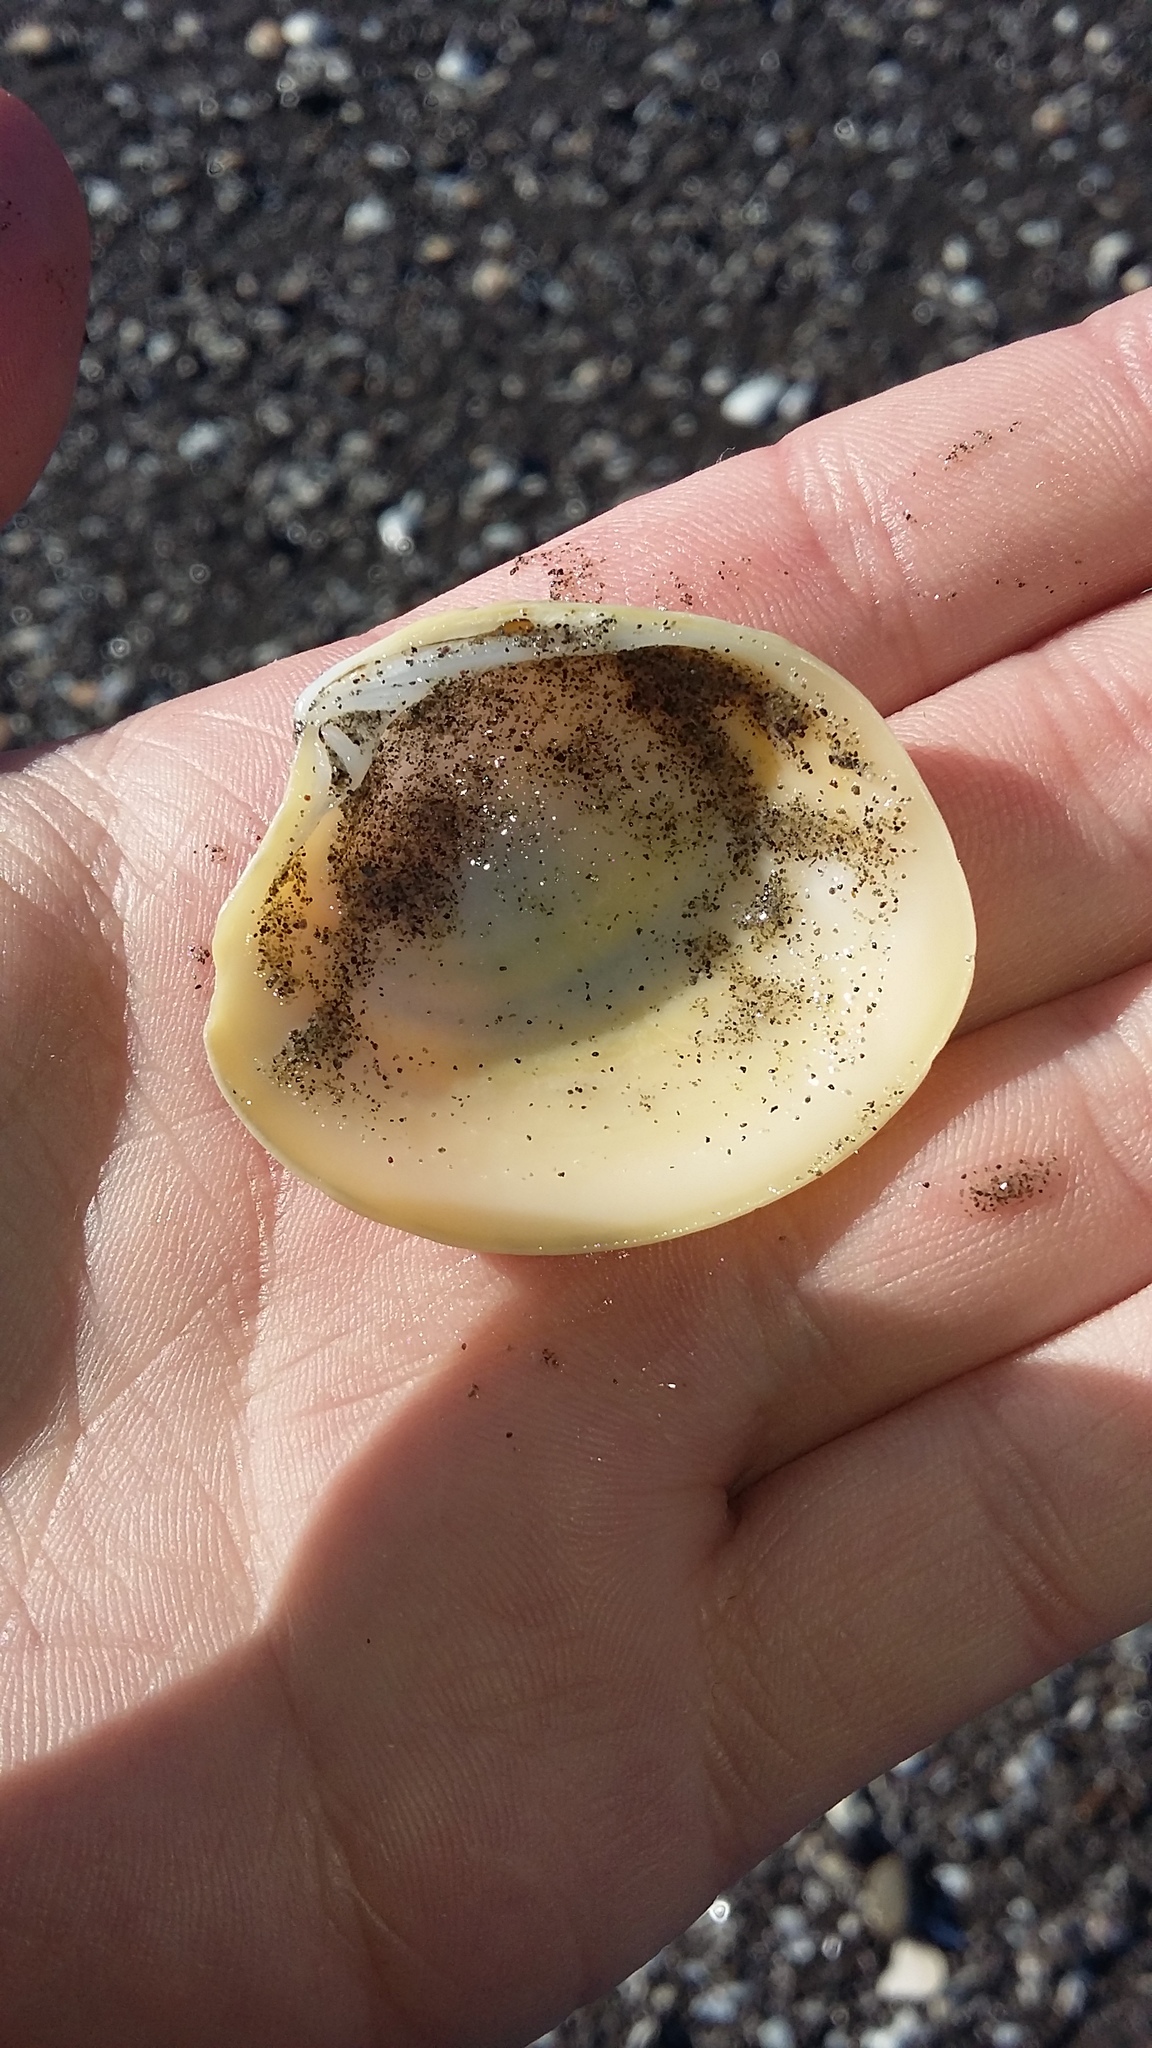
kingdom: Animalia
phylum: Mollusca
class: Bivalvia
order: Venerida
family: Veneridae
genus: Bassina
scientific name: Bassina yatei
